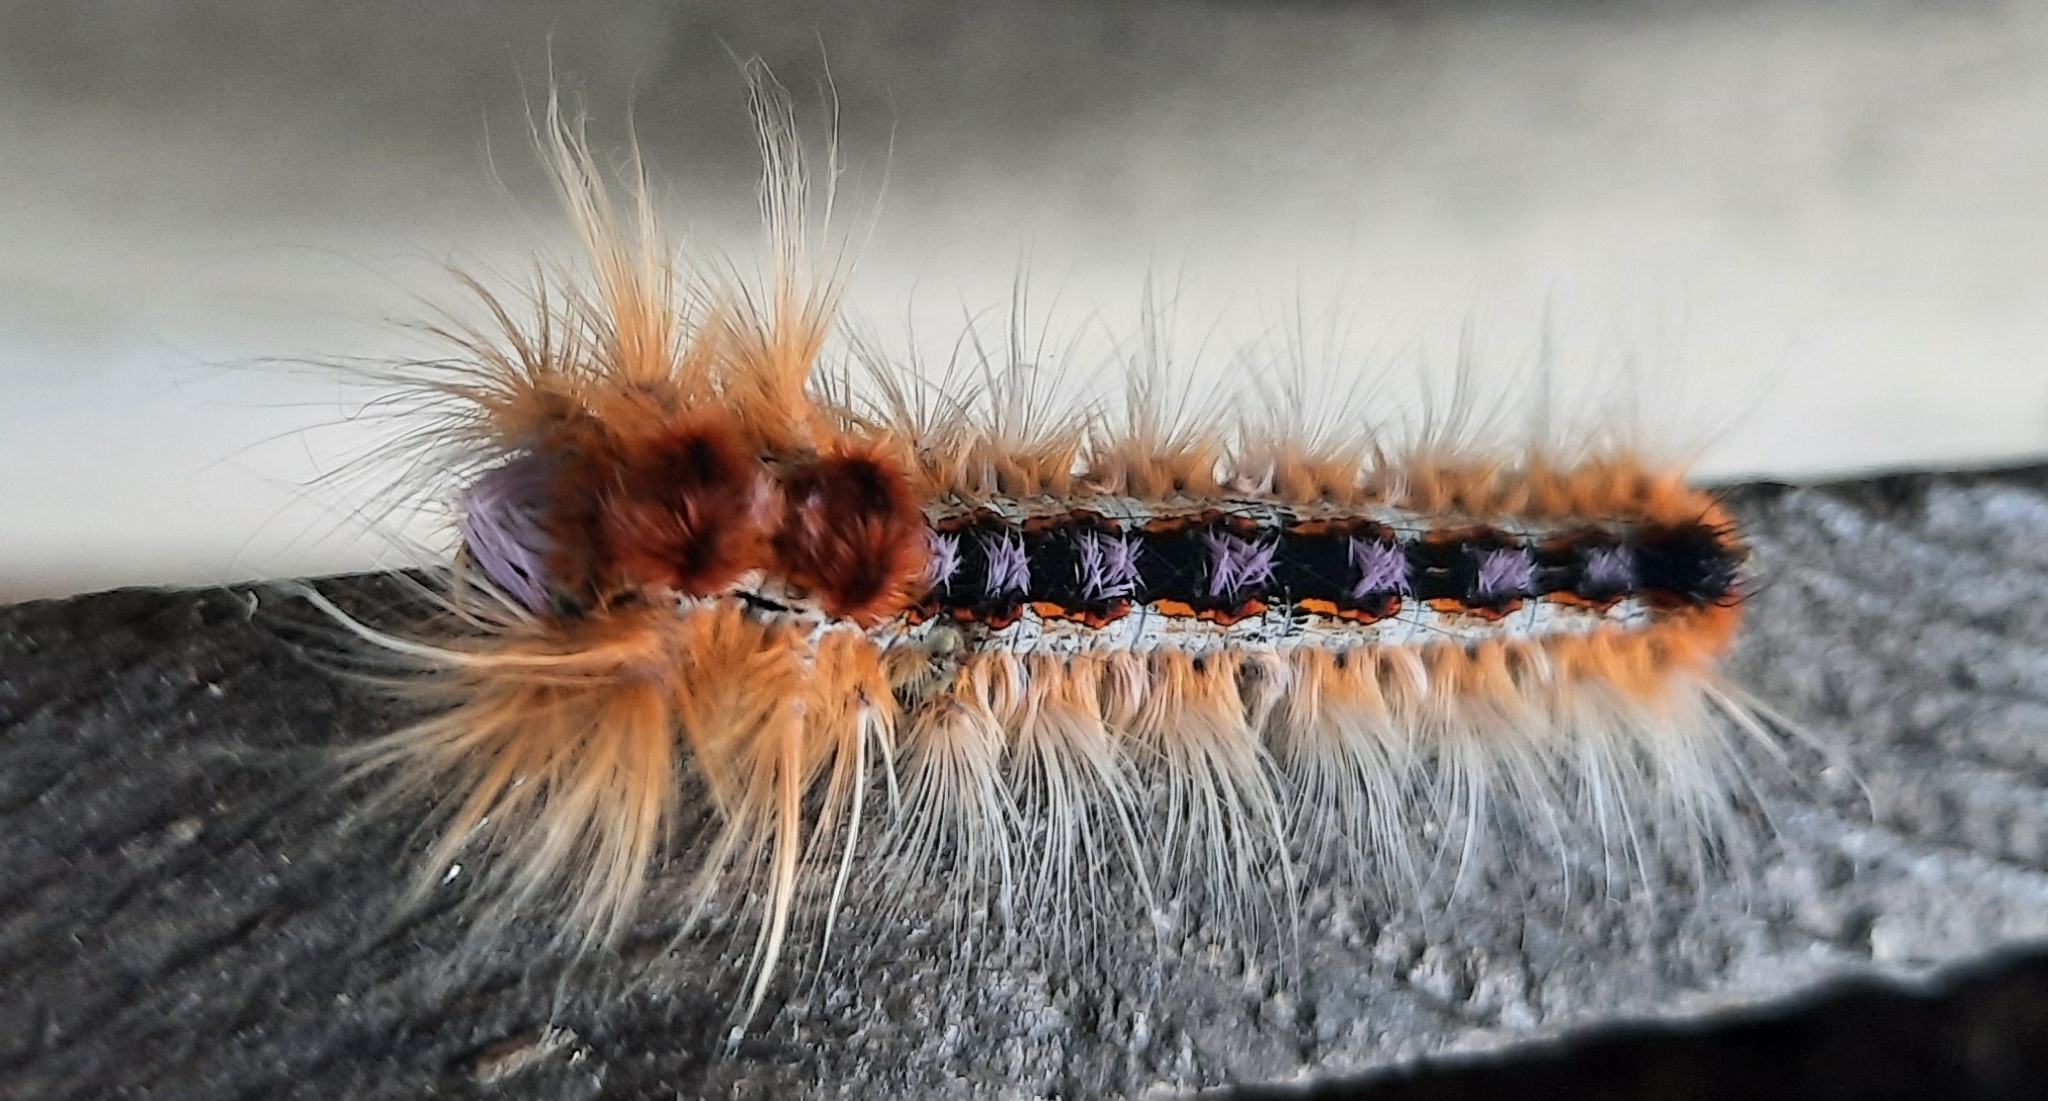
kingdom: Animalia
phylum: Arthropoda
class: Insecta
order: Lepidoptera
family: Lasiocampidae
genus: Eutricha
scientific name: Eutricha capensis
